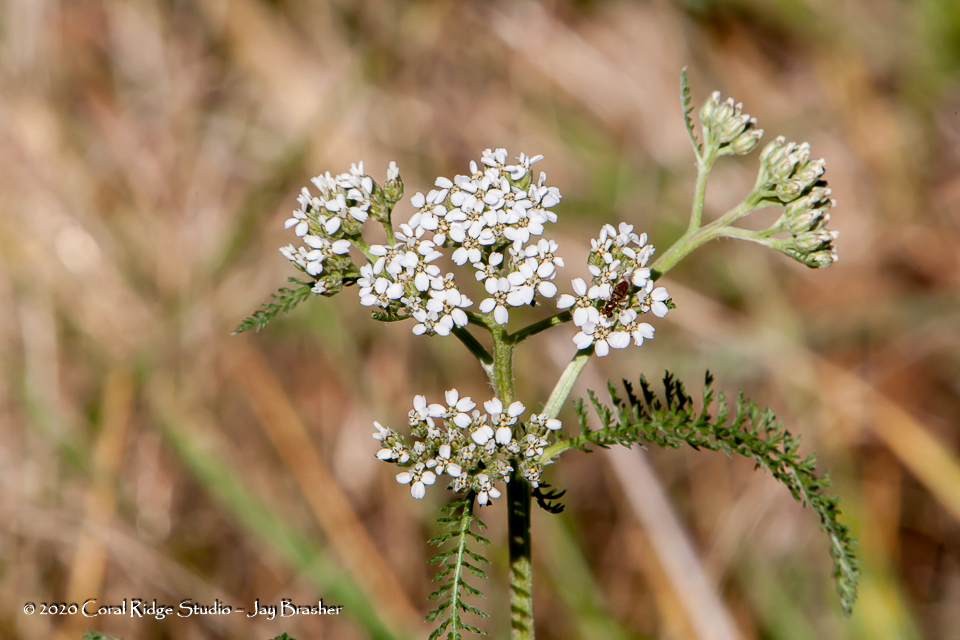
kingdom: Plantae
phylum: Tracheophyta
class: Magnoliopsida
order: Asterales
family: Asteraceae
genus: Achillea
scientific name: Achillea millefolium
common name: Yarrow
